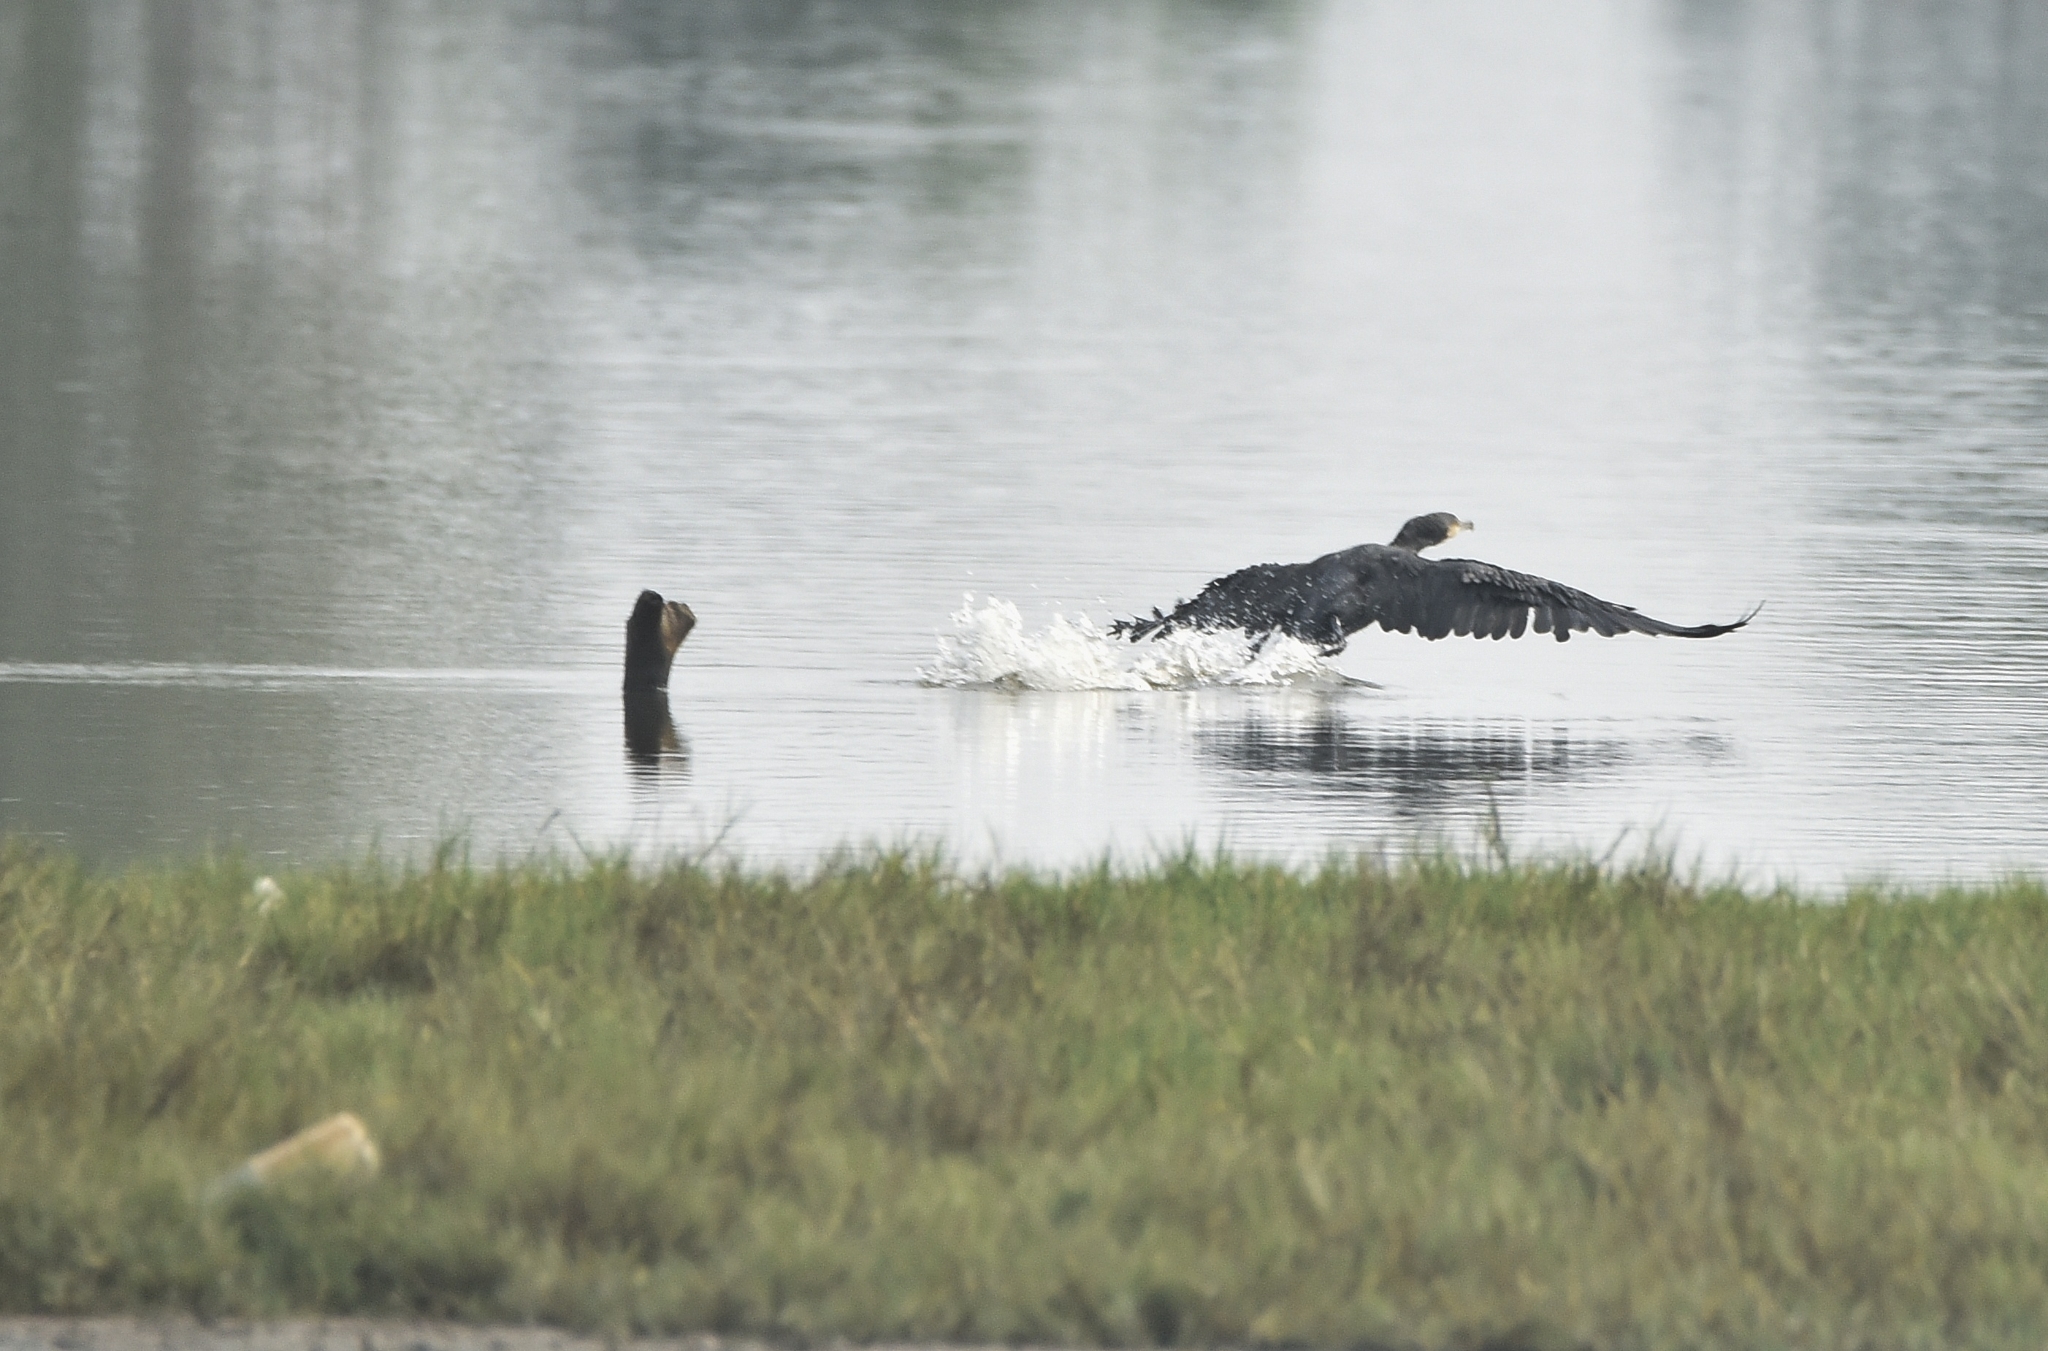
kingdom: Animalia
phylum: Chordata
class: Aves
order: Suliformes
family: Phalacrocoracidae
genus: Phalacrocorax
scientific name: Phalacrocorax carbo
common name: Great cormorant
